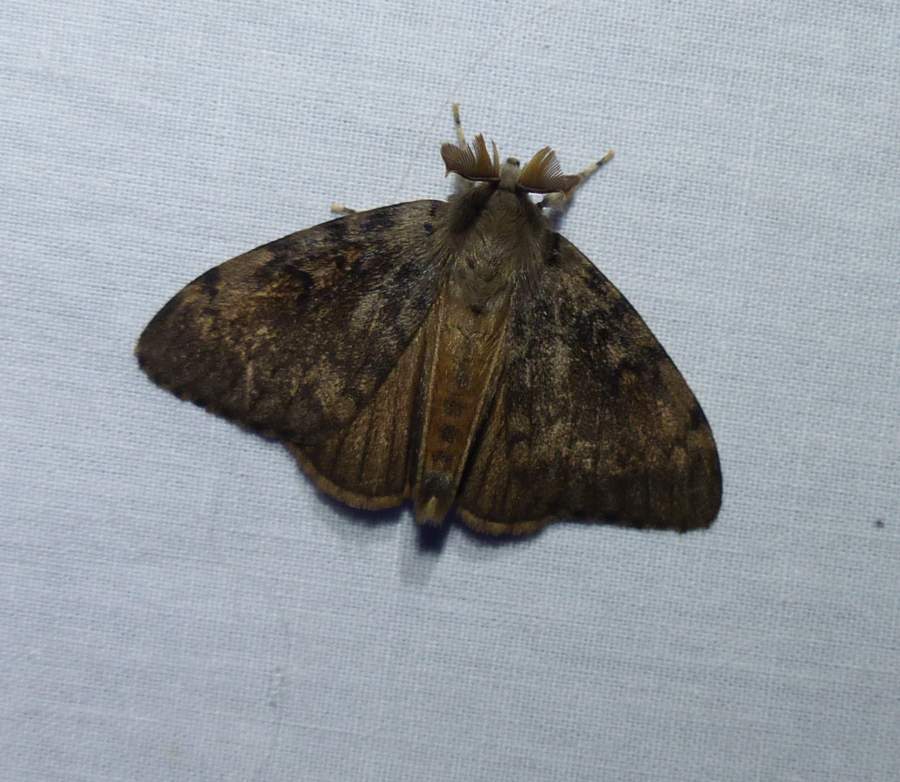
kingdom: Animalia
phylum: Arthropoda
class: Insecta
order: Lepidoptera
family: Erebidae
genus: Lymantria
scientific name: Lymantria dispar
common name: Gypsy moth
